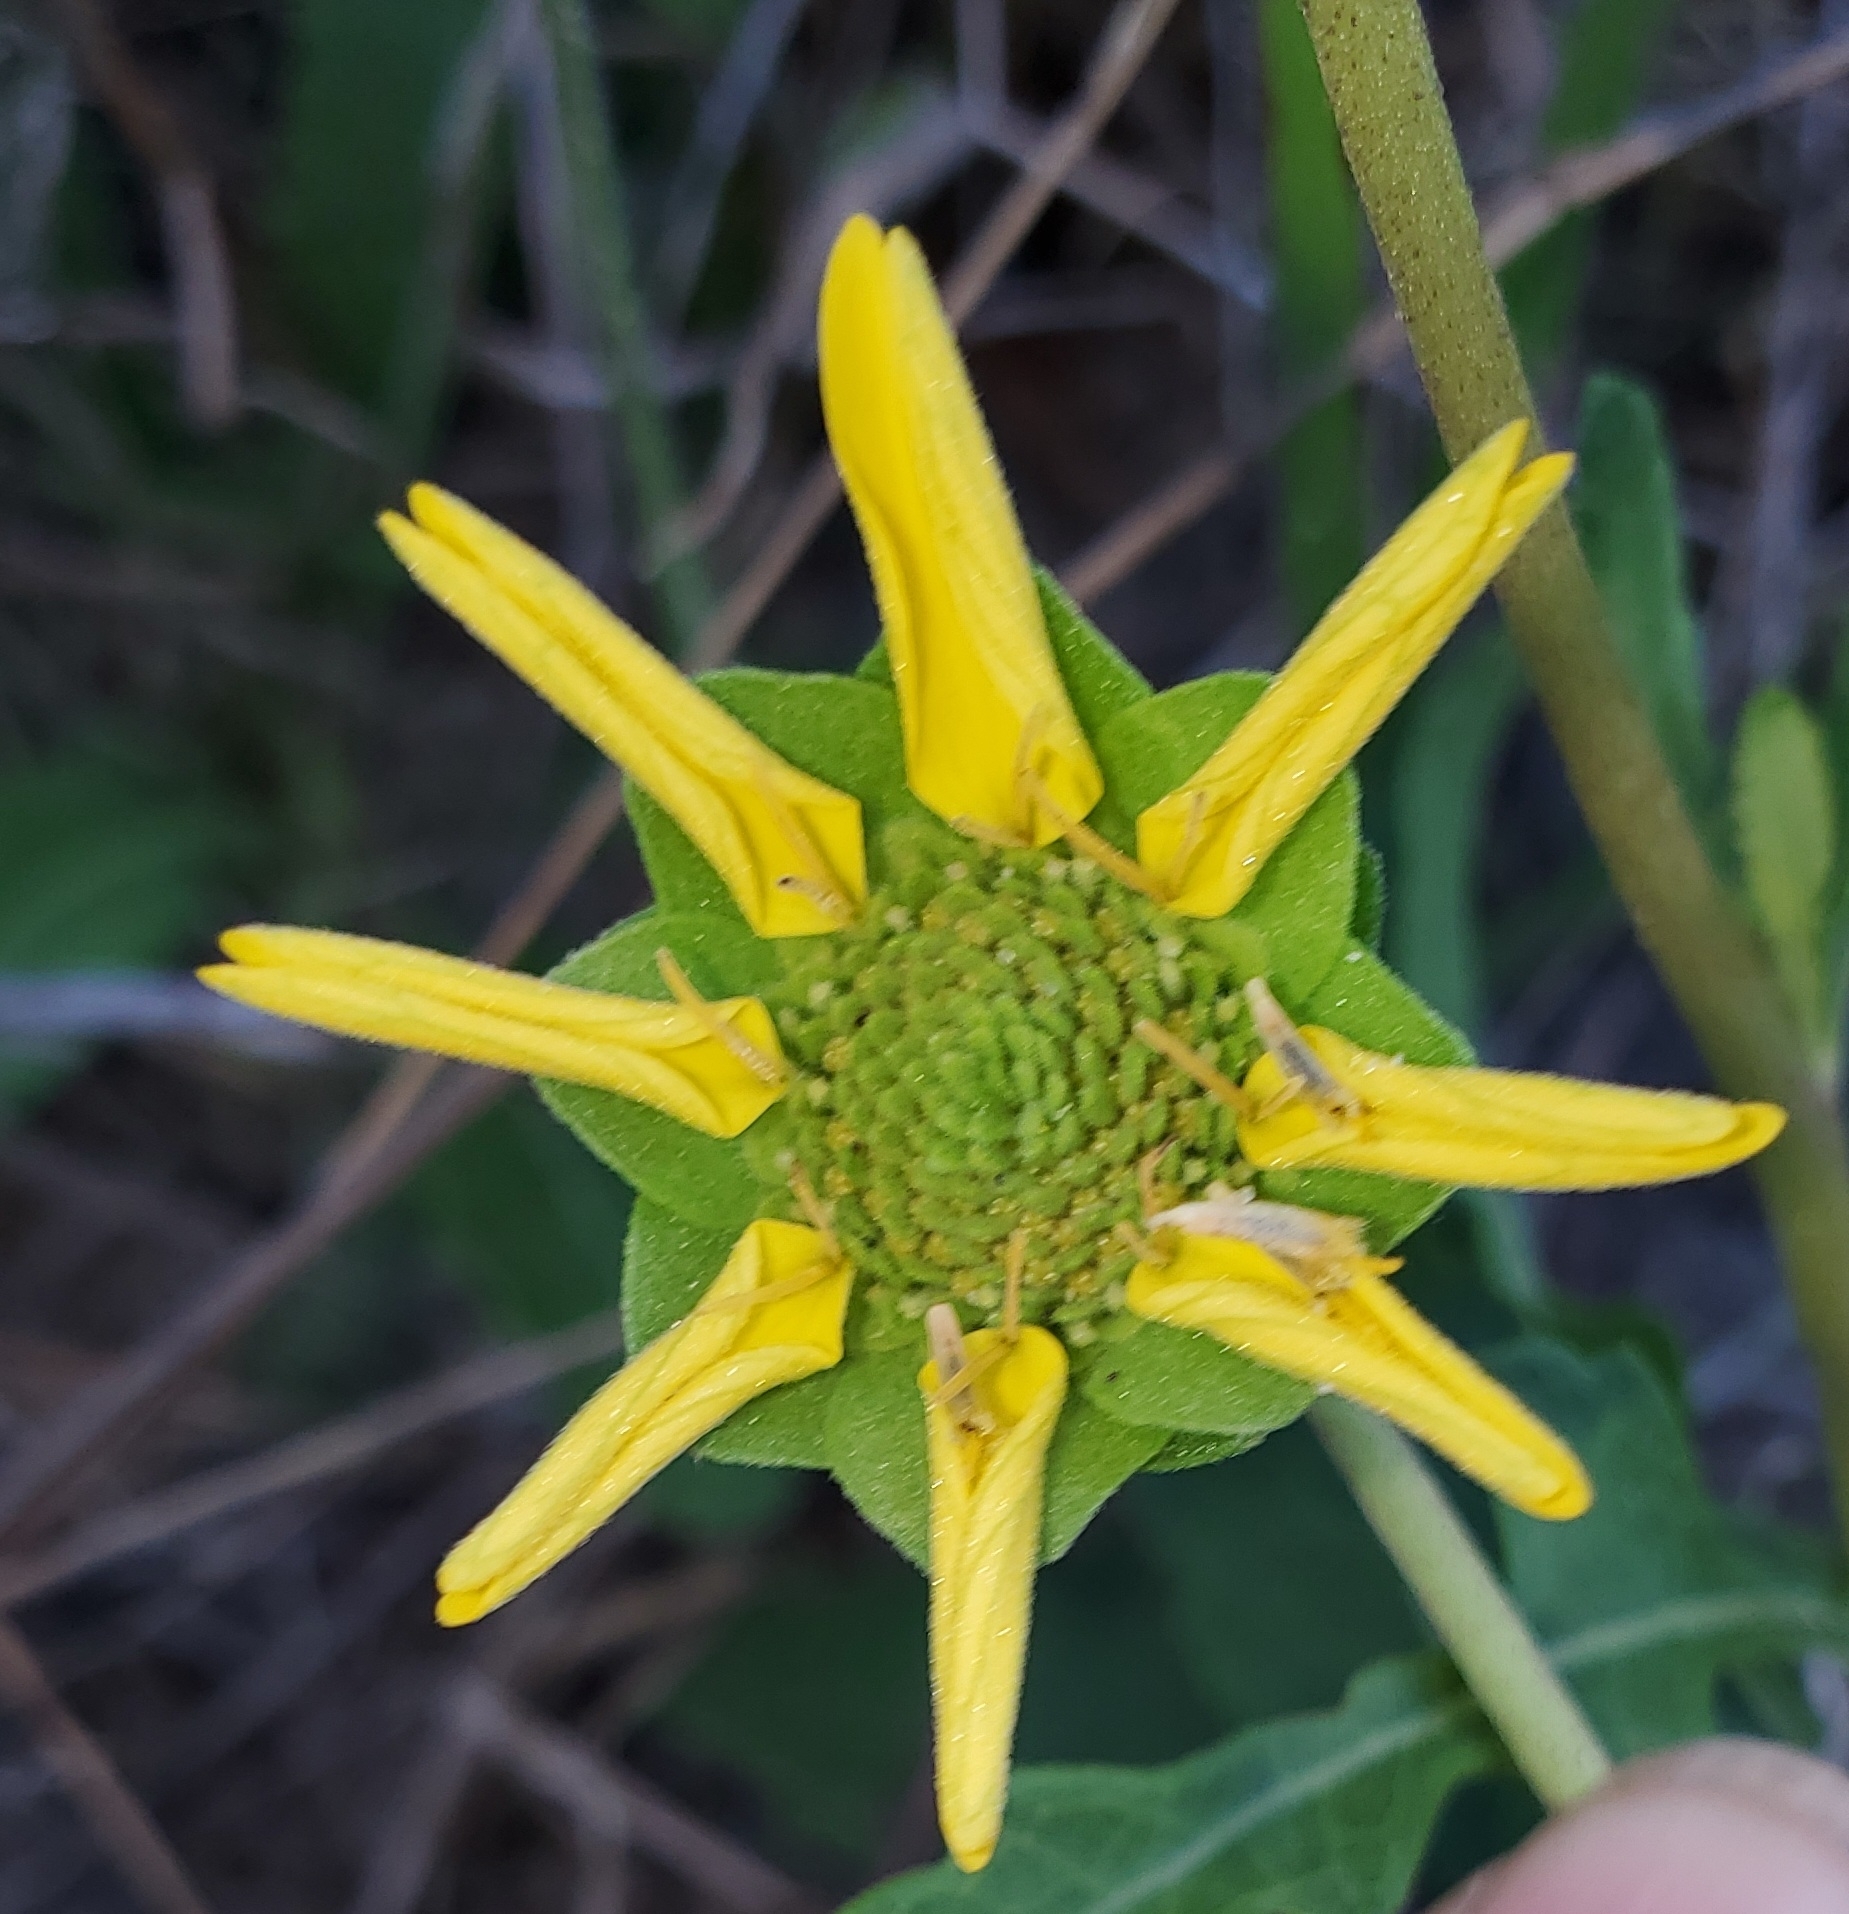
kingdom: Plantae
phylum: Tracheophyta
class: Magnoliopsida
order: Asterales
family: Asteraceae
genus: Berlandiera
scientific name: Berlandiera subacaulis
